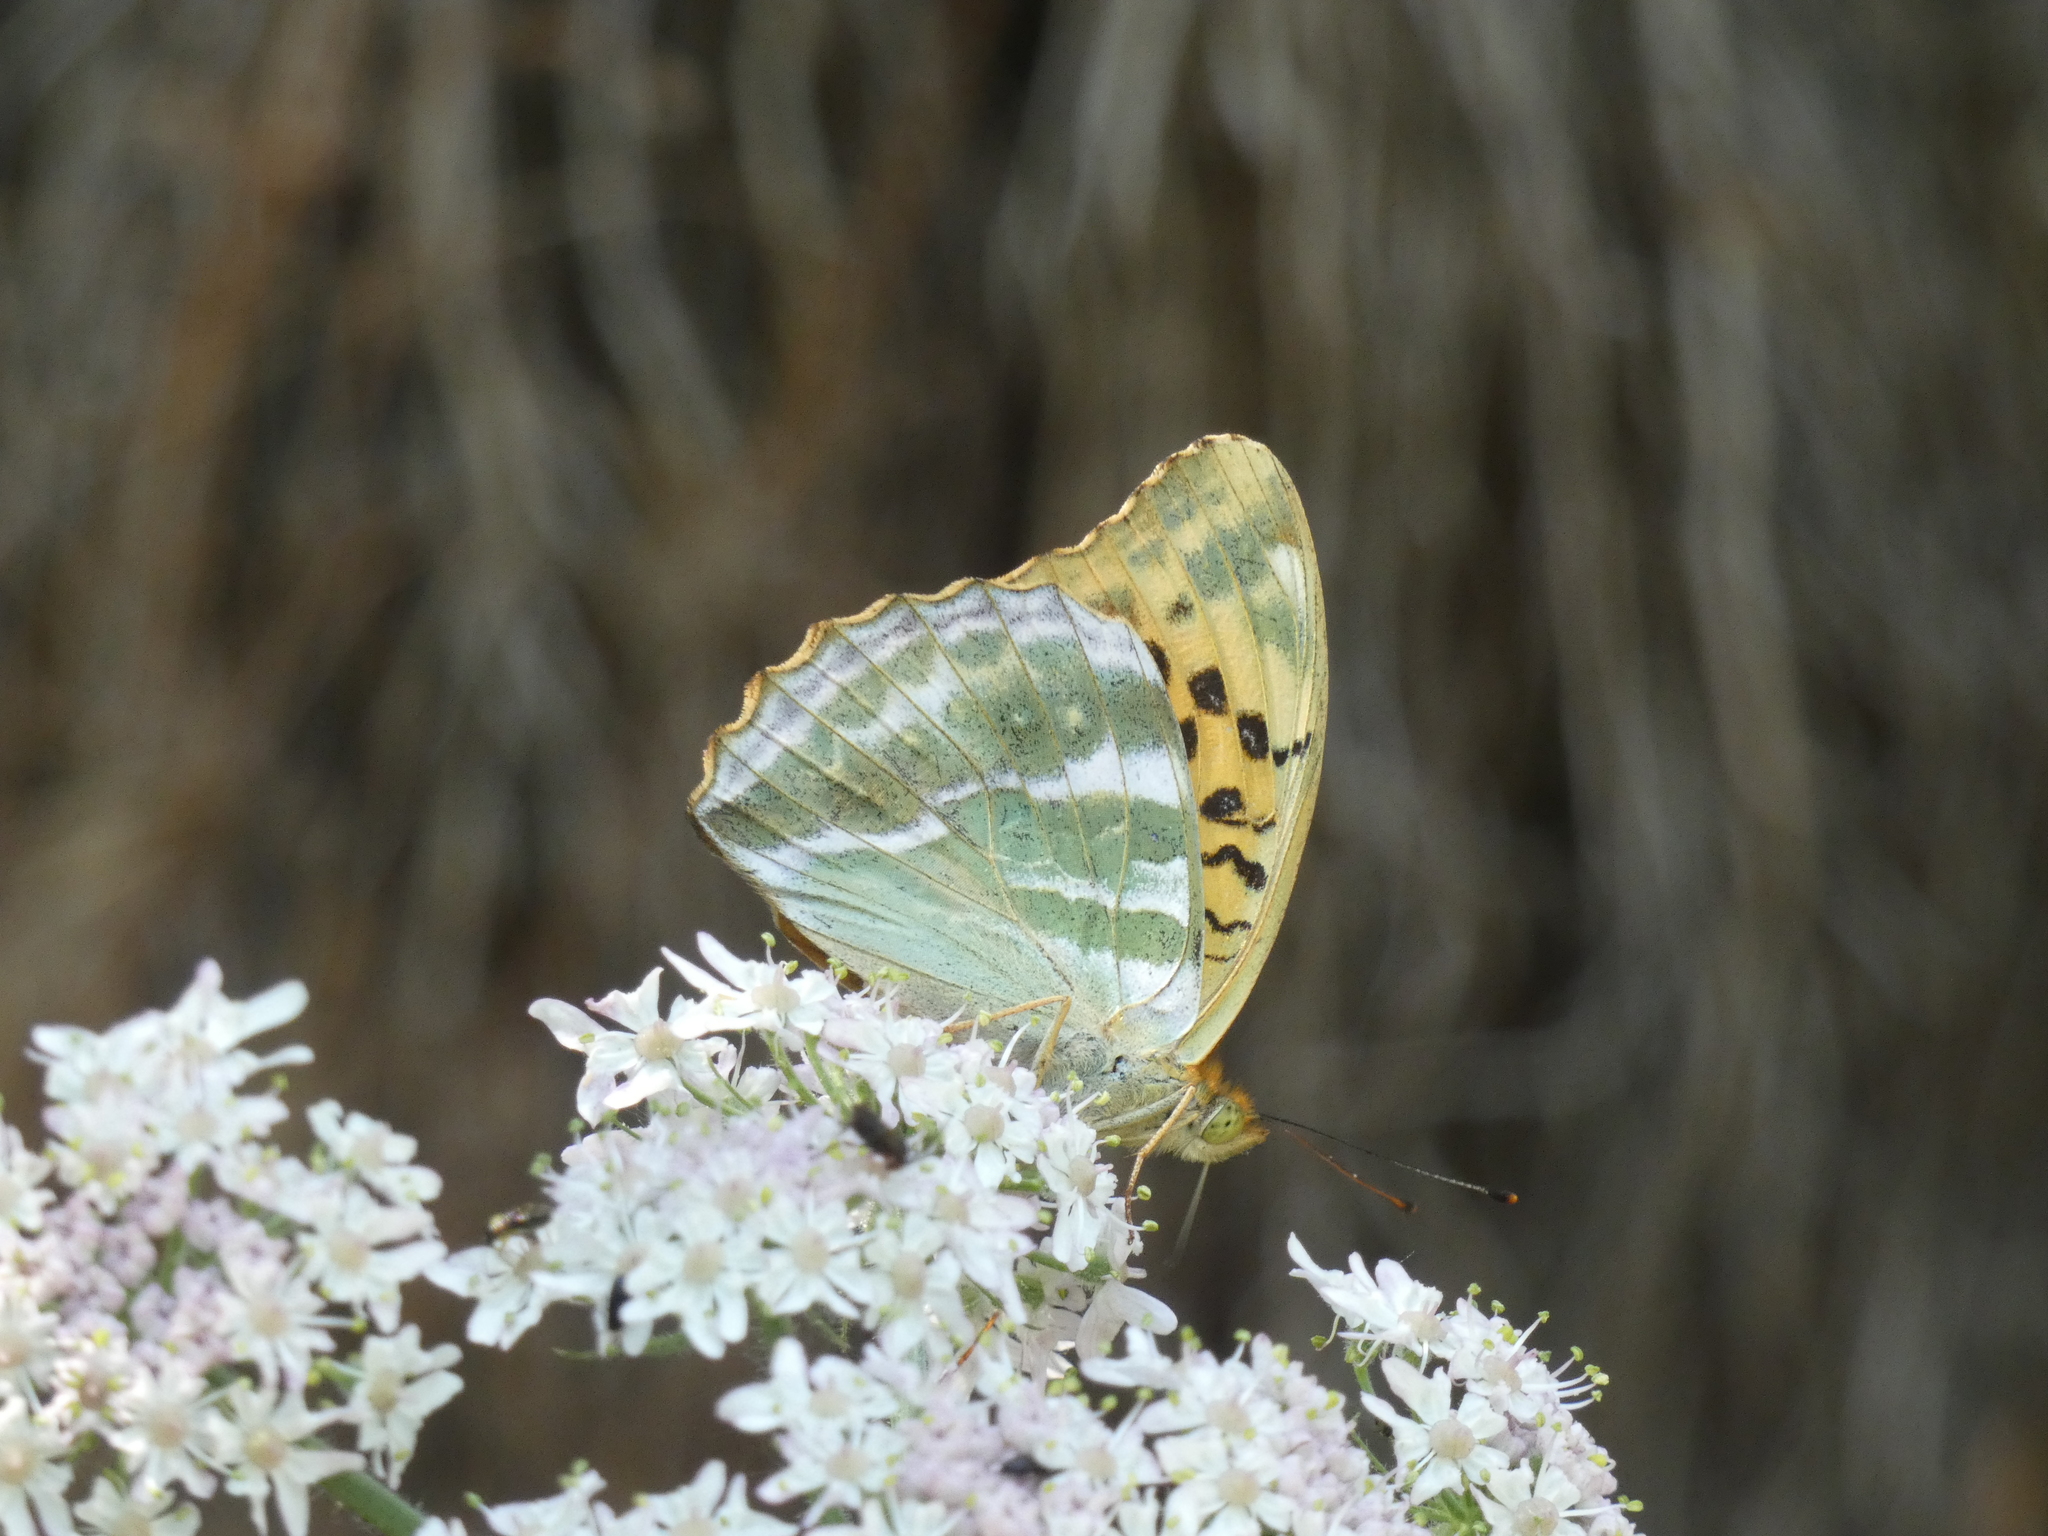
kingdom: Animalia
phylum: Arthropoda
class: Insecta
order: Lepidoptera
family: Nymphalidae
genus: Argynnis
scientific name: Argynnis paphia
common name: Silver-washed fritillary
